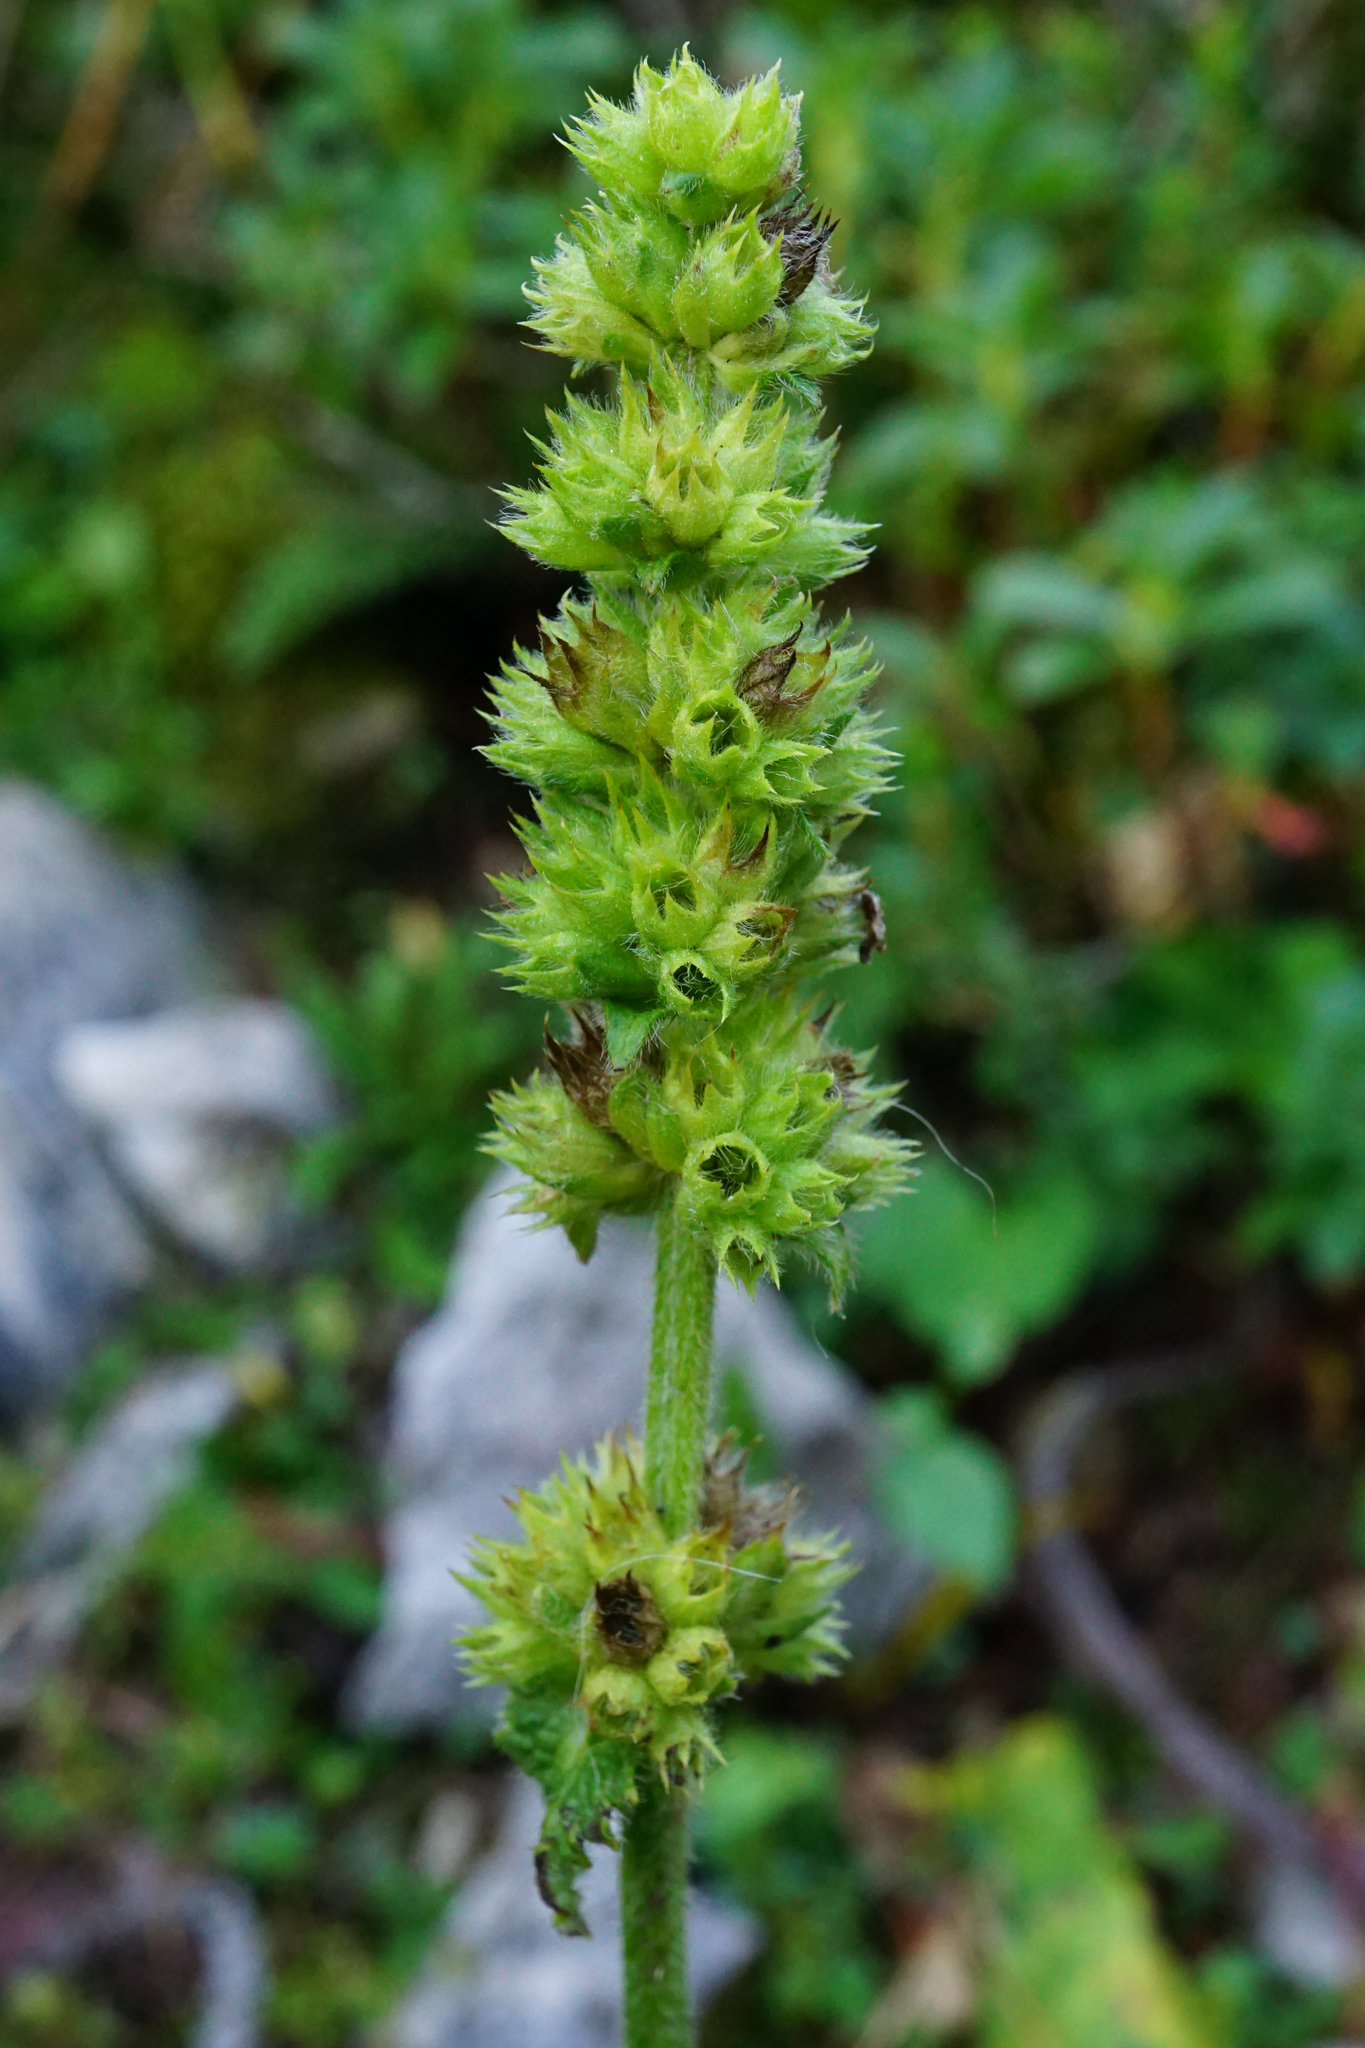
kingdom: Plantae
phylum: Tracheophyta
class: Magnoliopsida
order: Lamiales
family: Lamiaceae
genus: Betonica
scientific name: Betonica alopecuros
